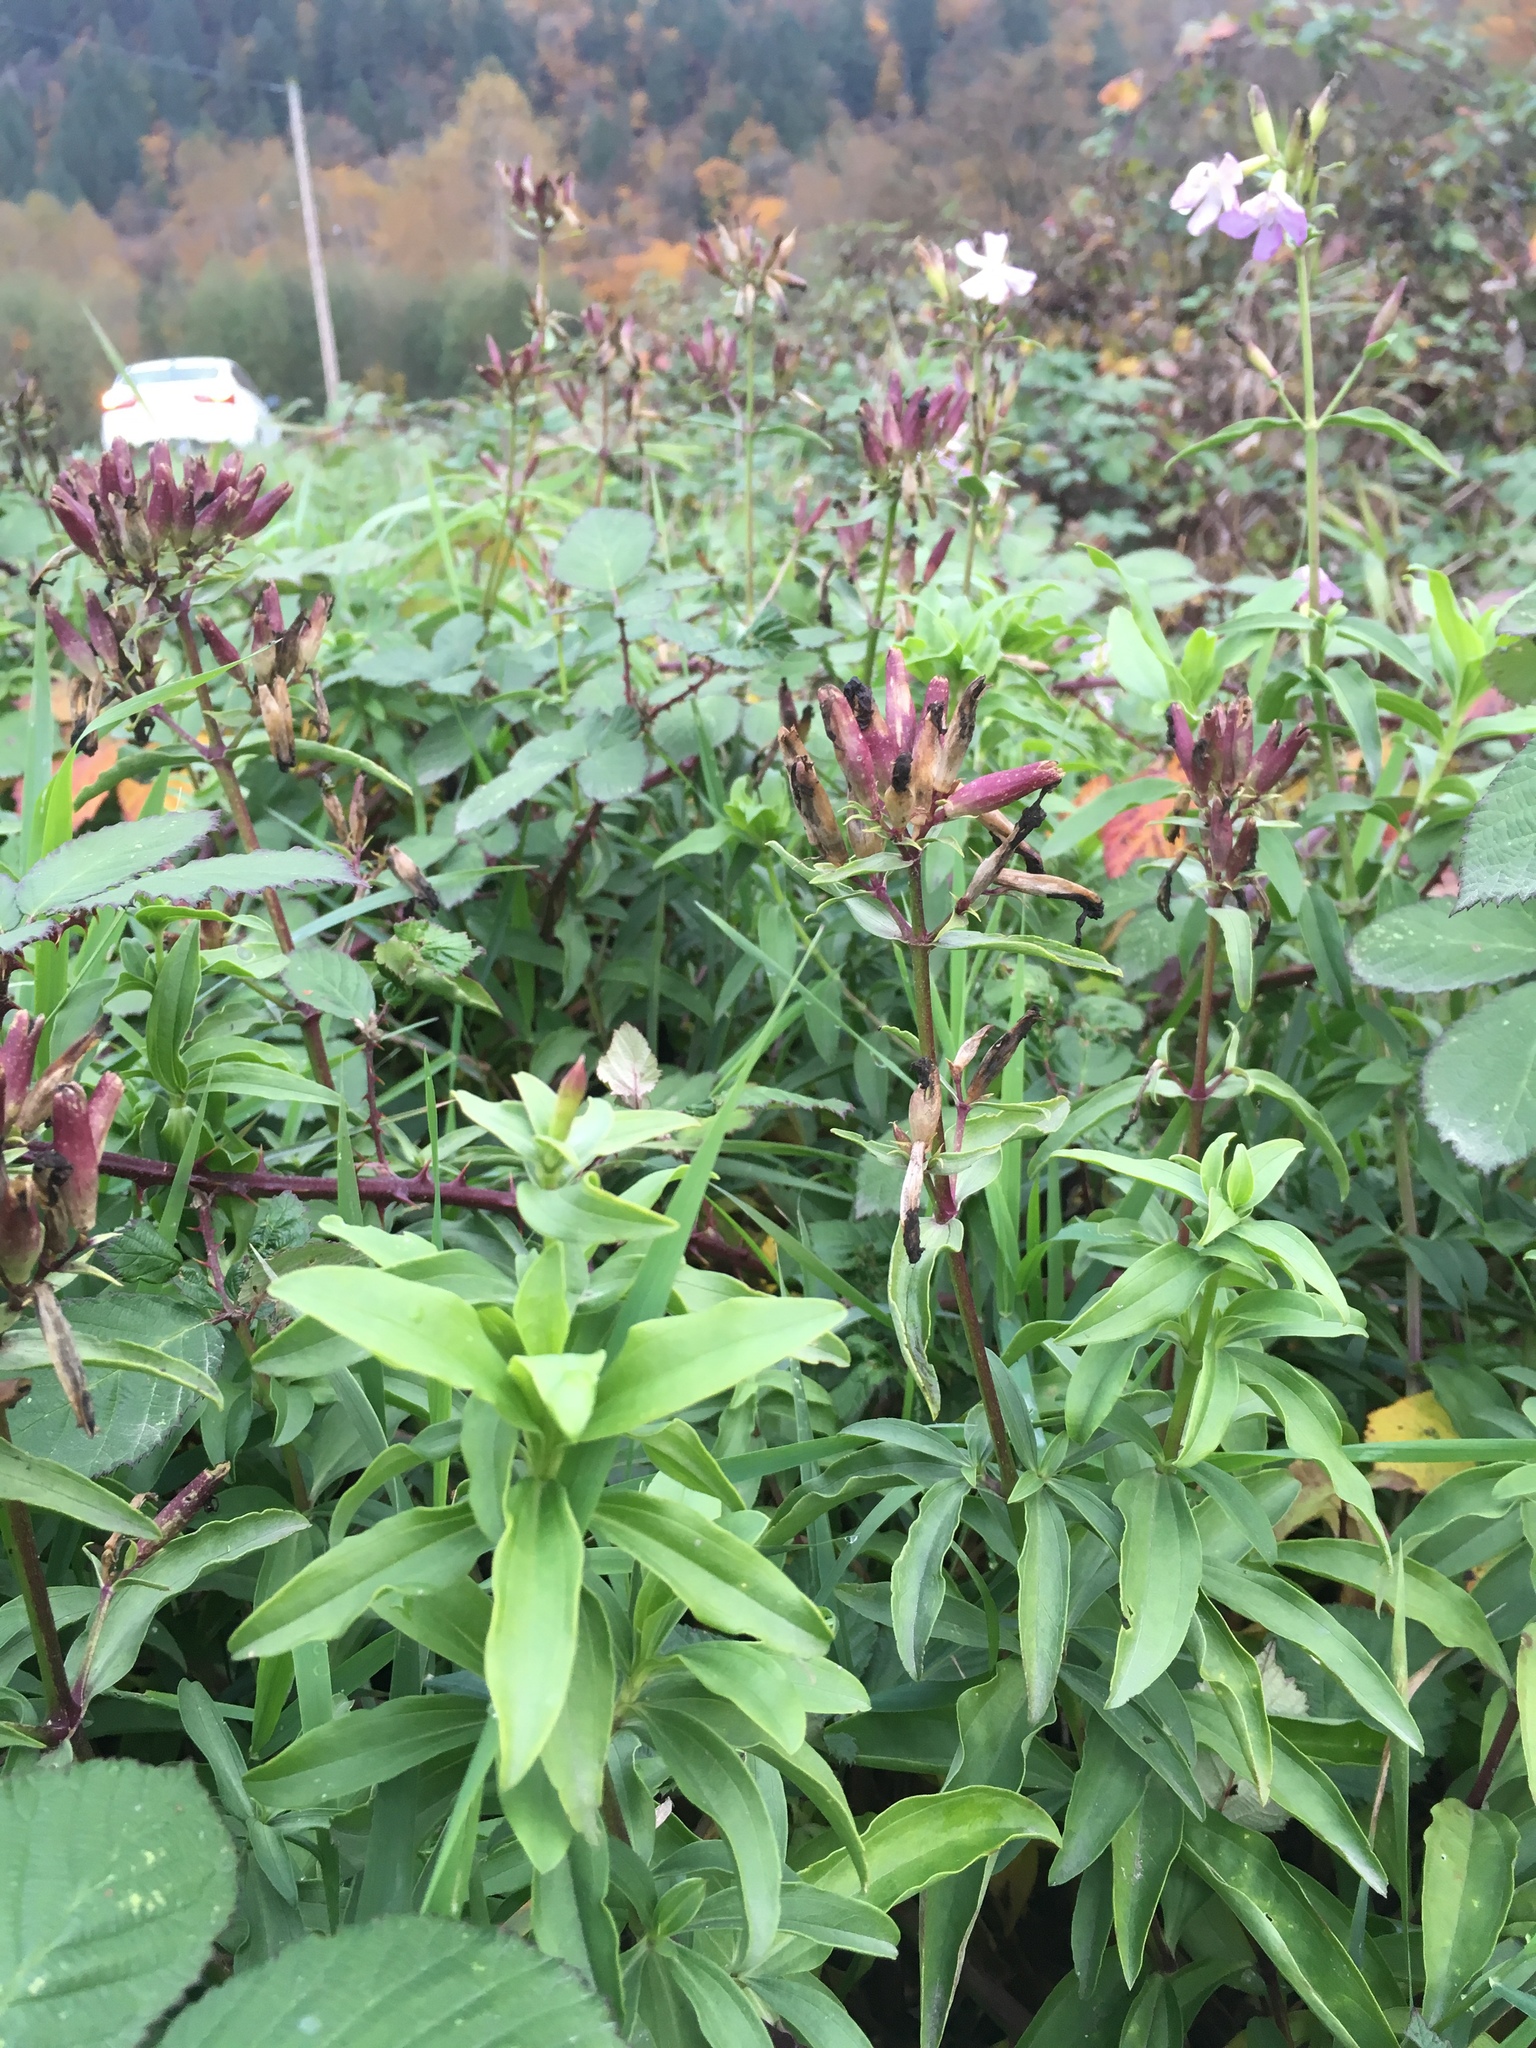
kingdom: Plantae
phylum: Tracheophyta
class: Magnoliopsida
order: Caryophyllales
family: Caryophyllaceae
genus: Saponaria
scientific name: Saponaria officinalis
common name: Soapwort
